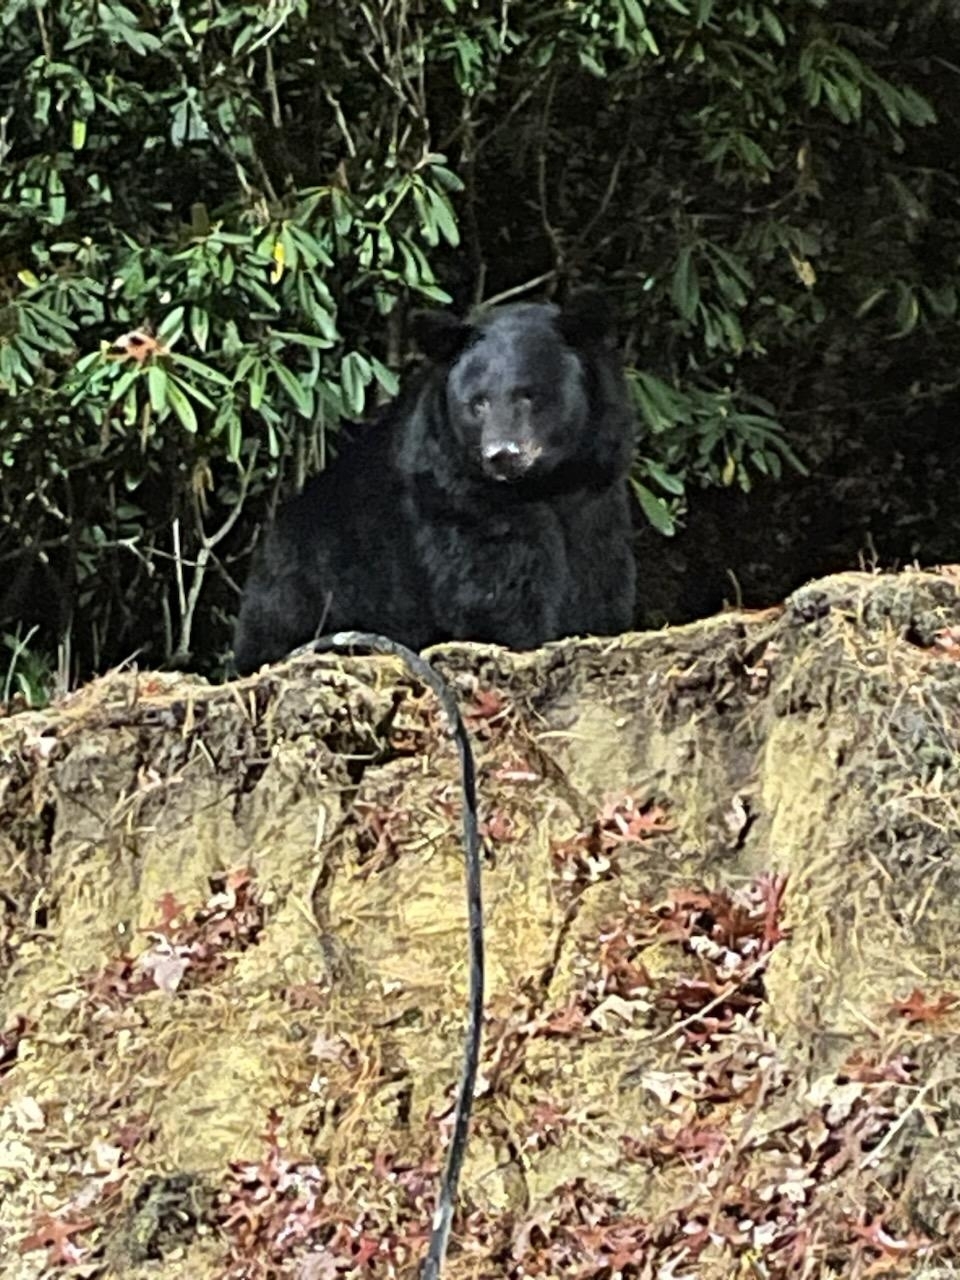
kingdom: Animalia
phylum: Chordata
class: Mammalia
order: Carnivora
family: Ursidae
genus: Ursus
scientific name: Ursus americanus
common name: American black bear
